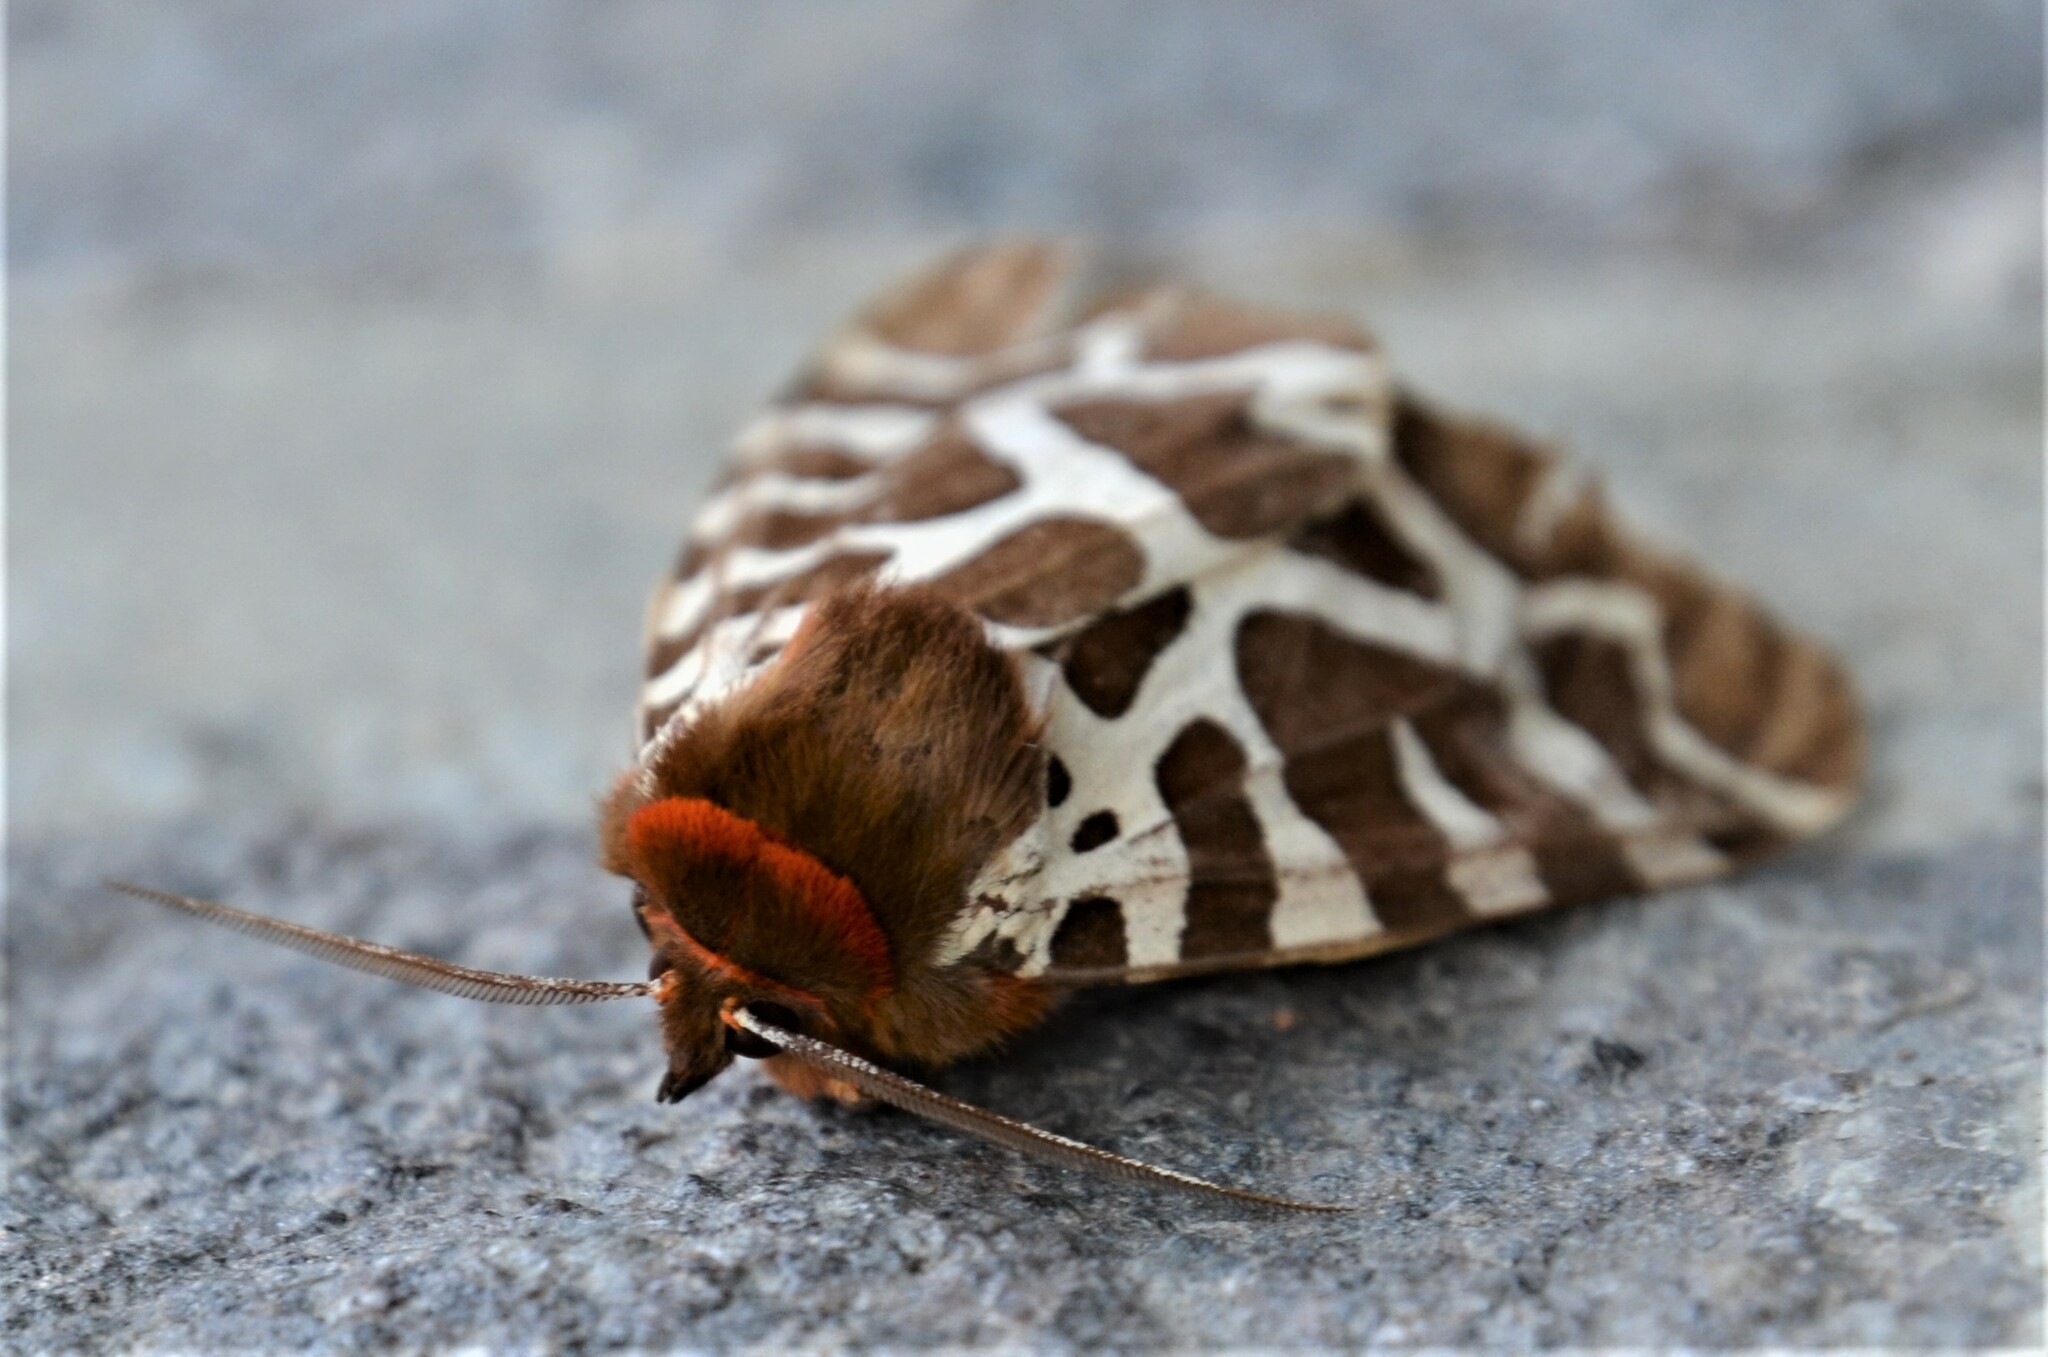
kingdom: Animalia
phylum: Arthropoda
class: Insecta
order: Lepidoptera
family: Erebidae
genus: Arctia
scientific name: Arctia caja
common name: Garden tiger
